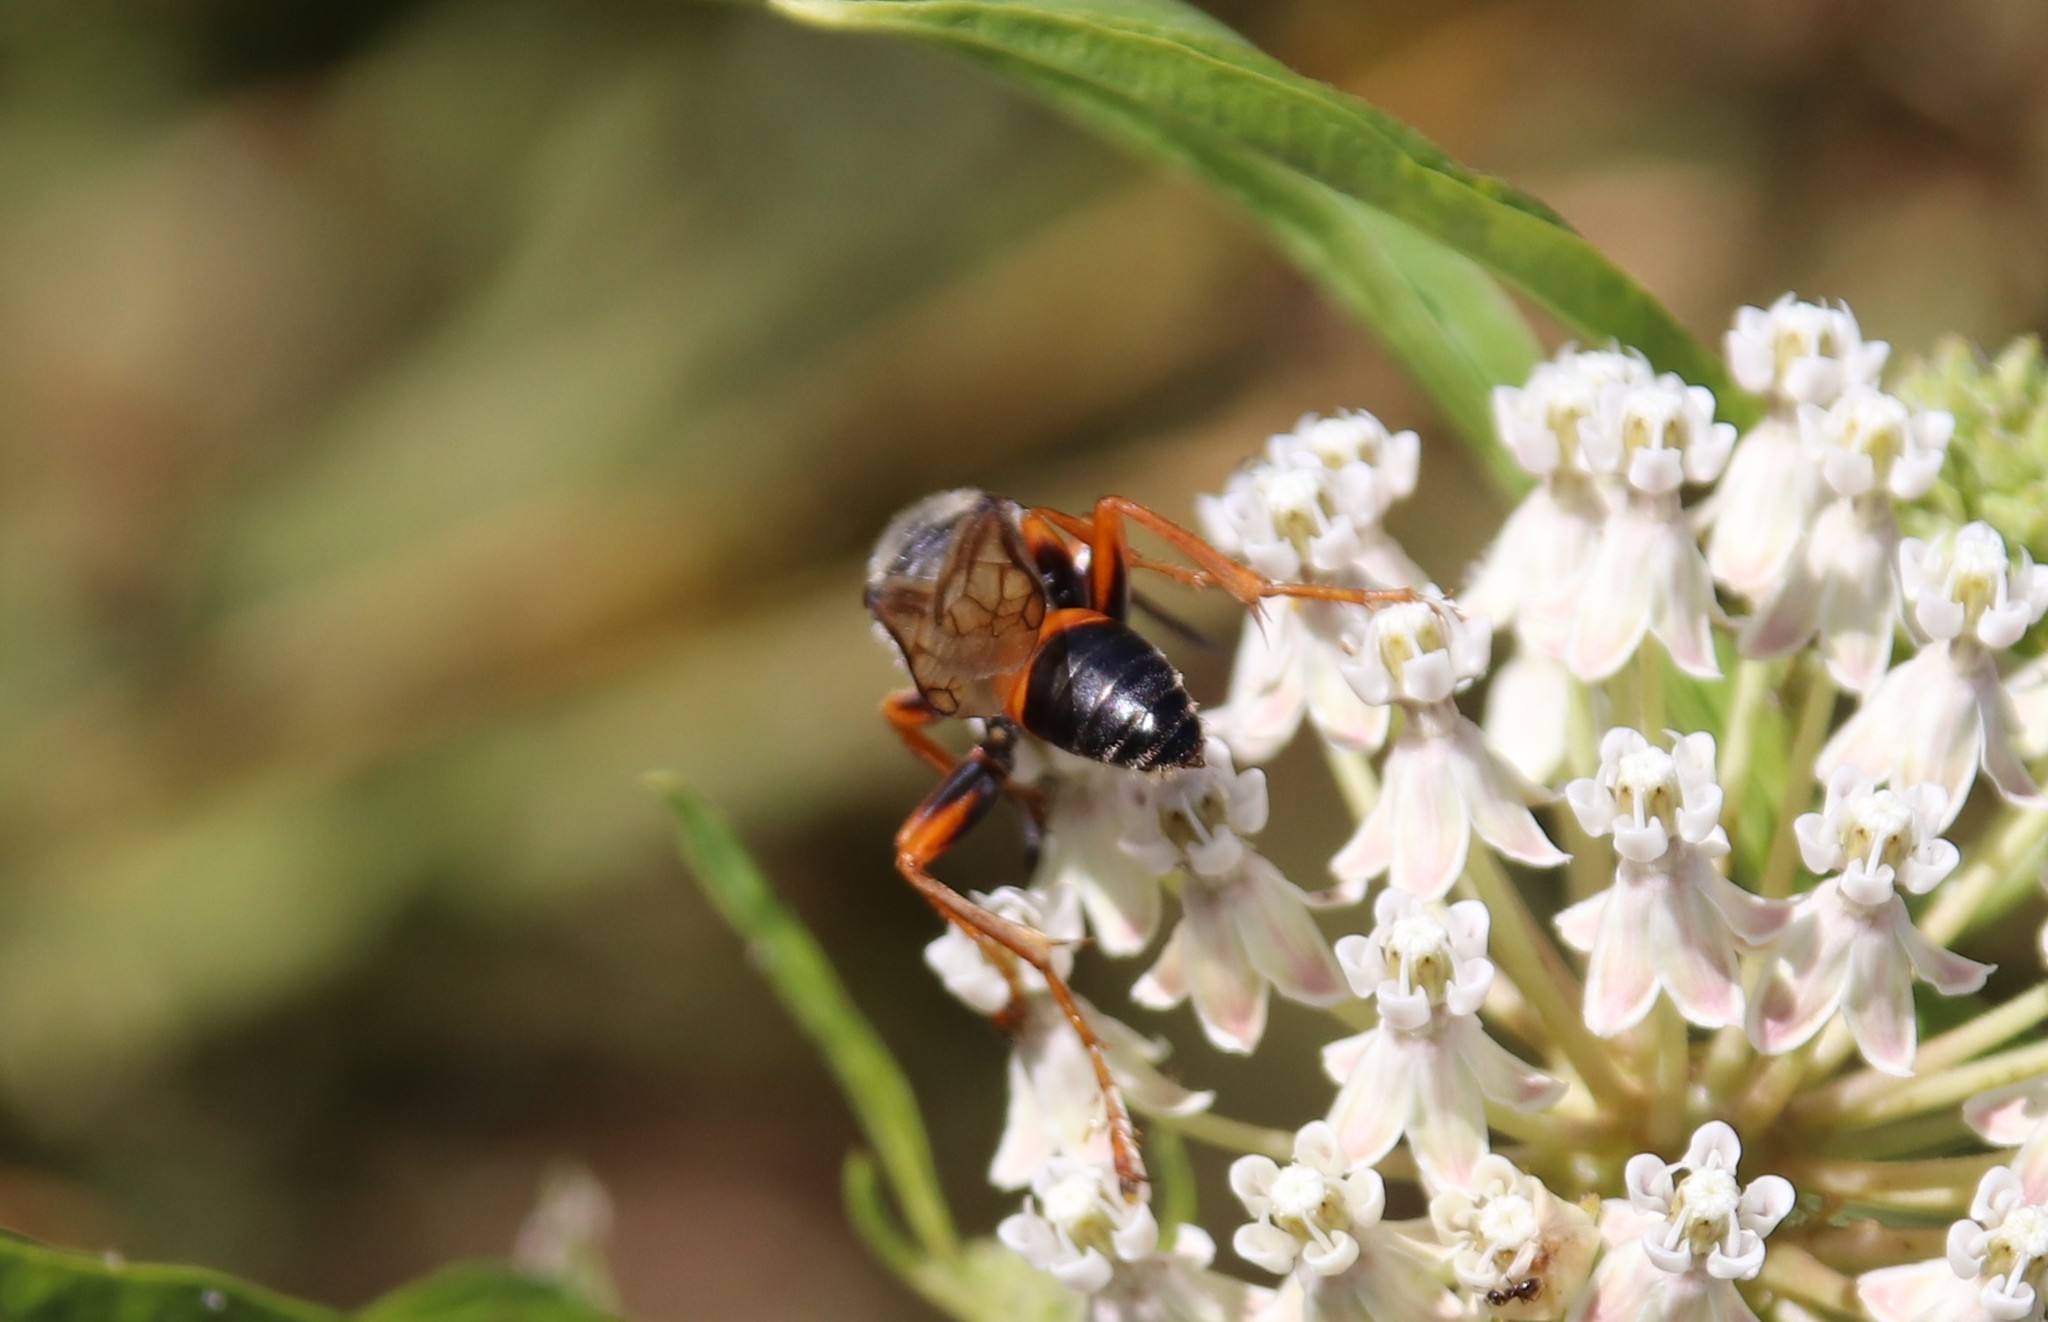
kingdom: Animalia
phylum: Arthropoda
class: Insecta
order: Hymenoptera
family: Sphecidae
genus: Sphex
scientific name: Sphex ichneumoneus
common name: Great golden digger wasp
